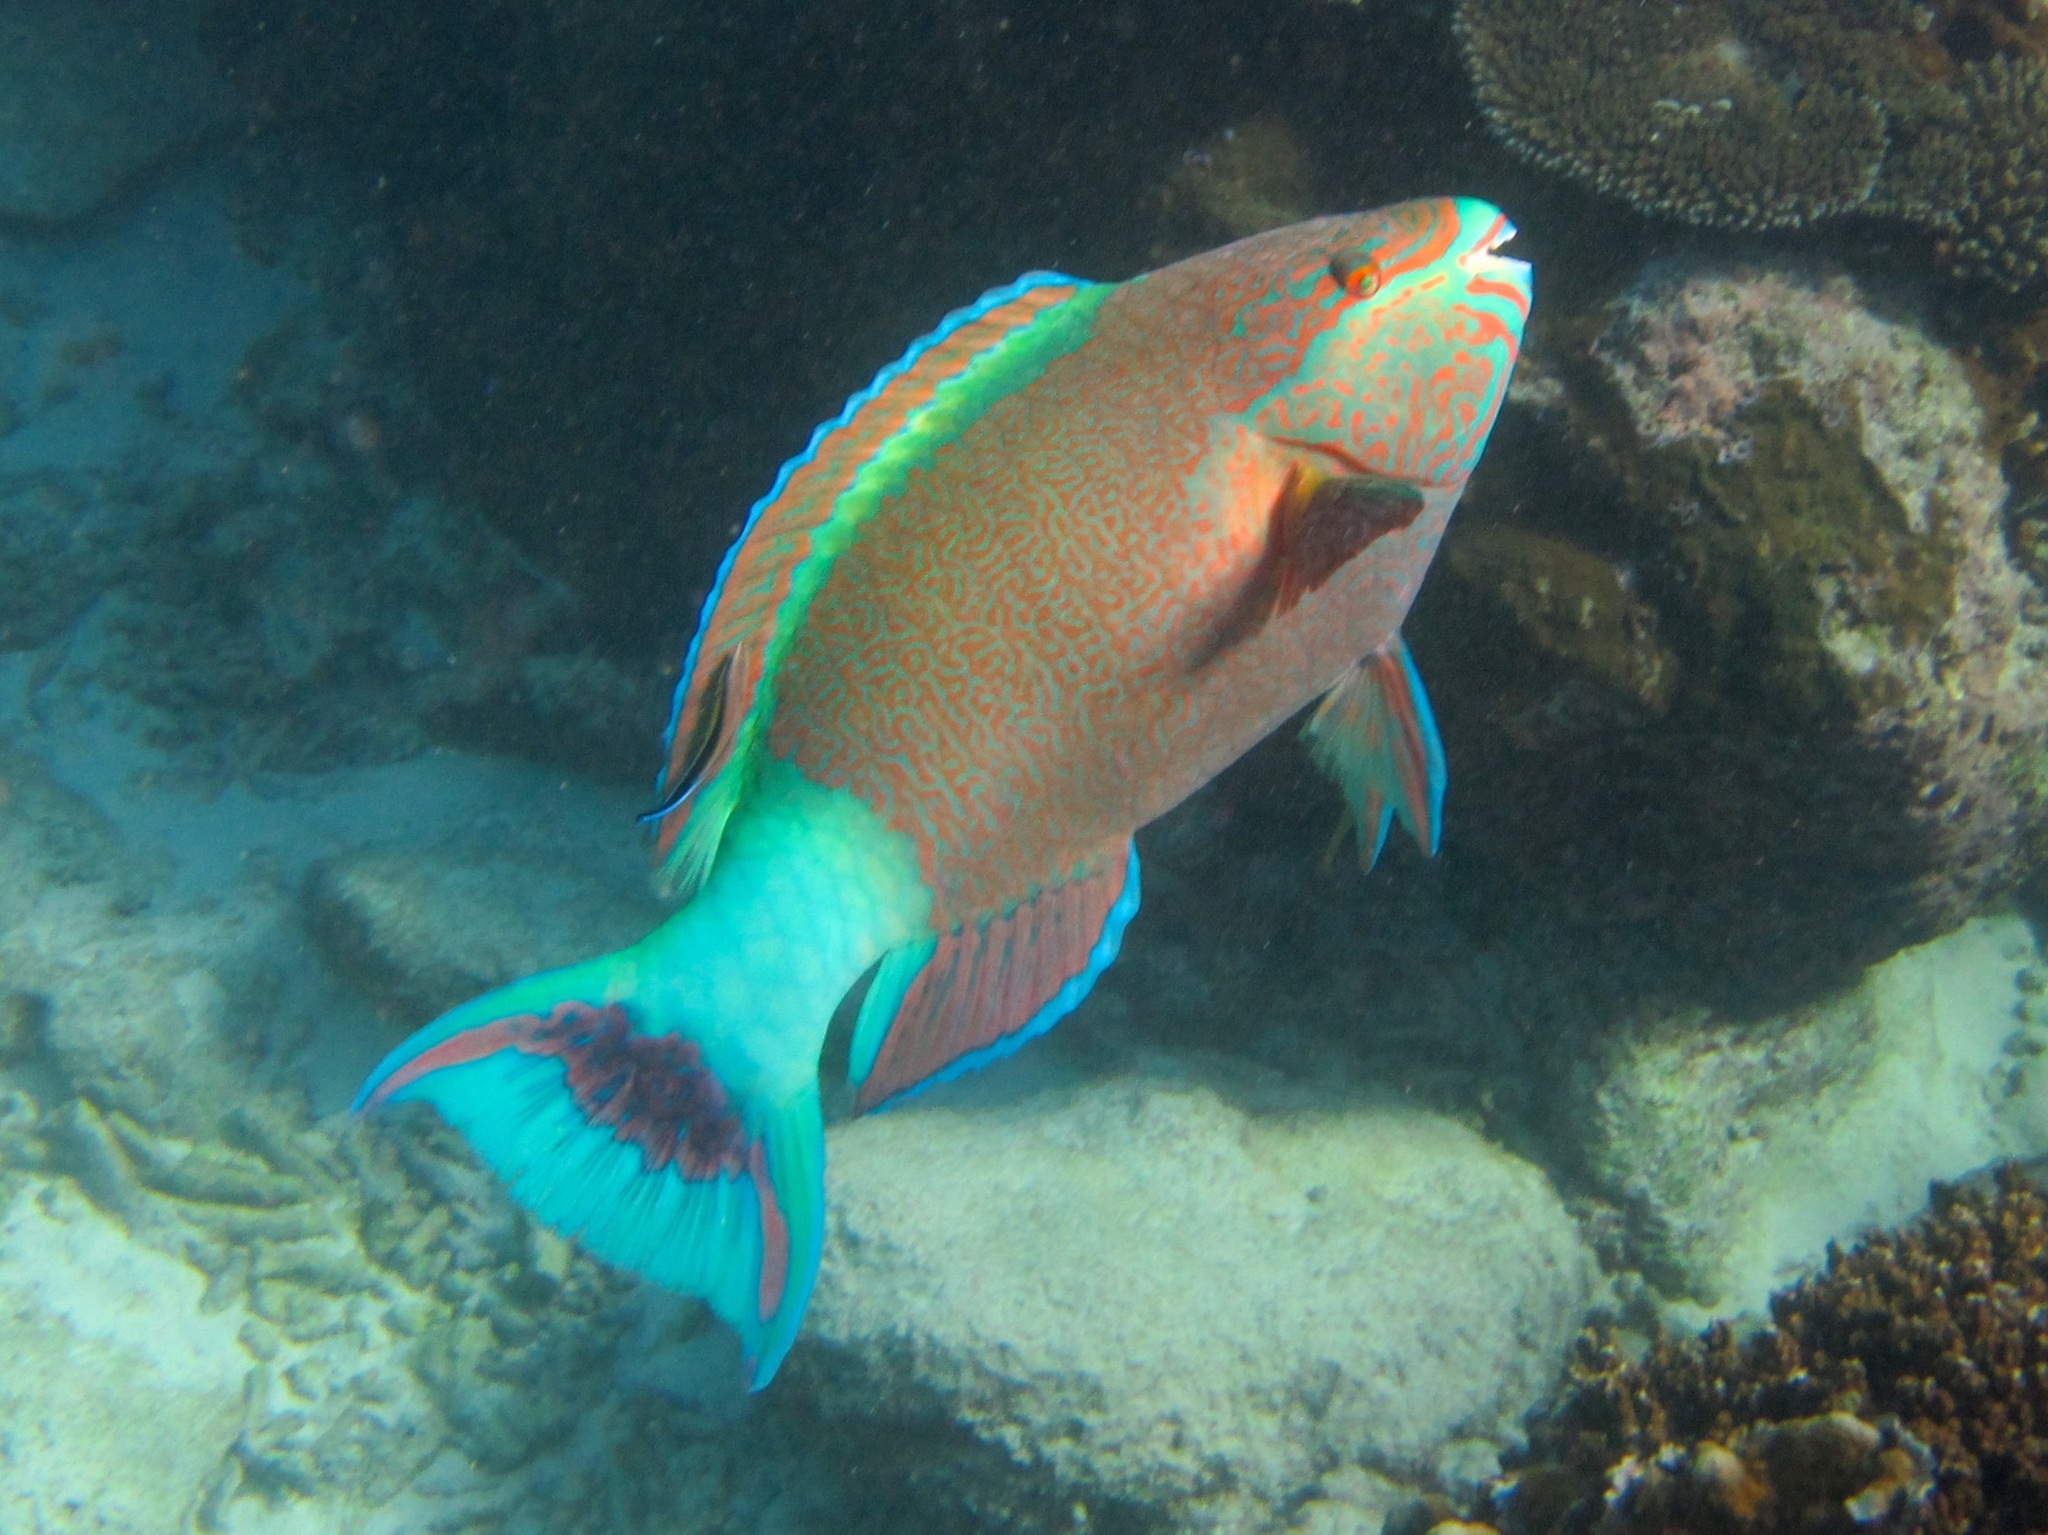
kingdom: Animalia
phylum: Chordata
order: Perciformes
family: Scaridae
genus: Scarus
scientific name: Scarus frenatus
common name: Bridled parrotfish
